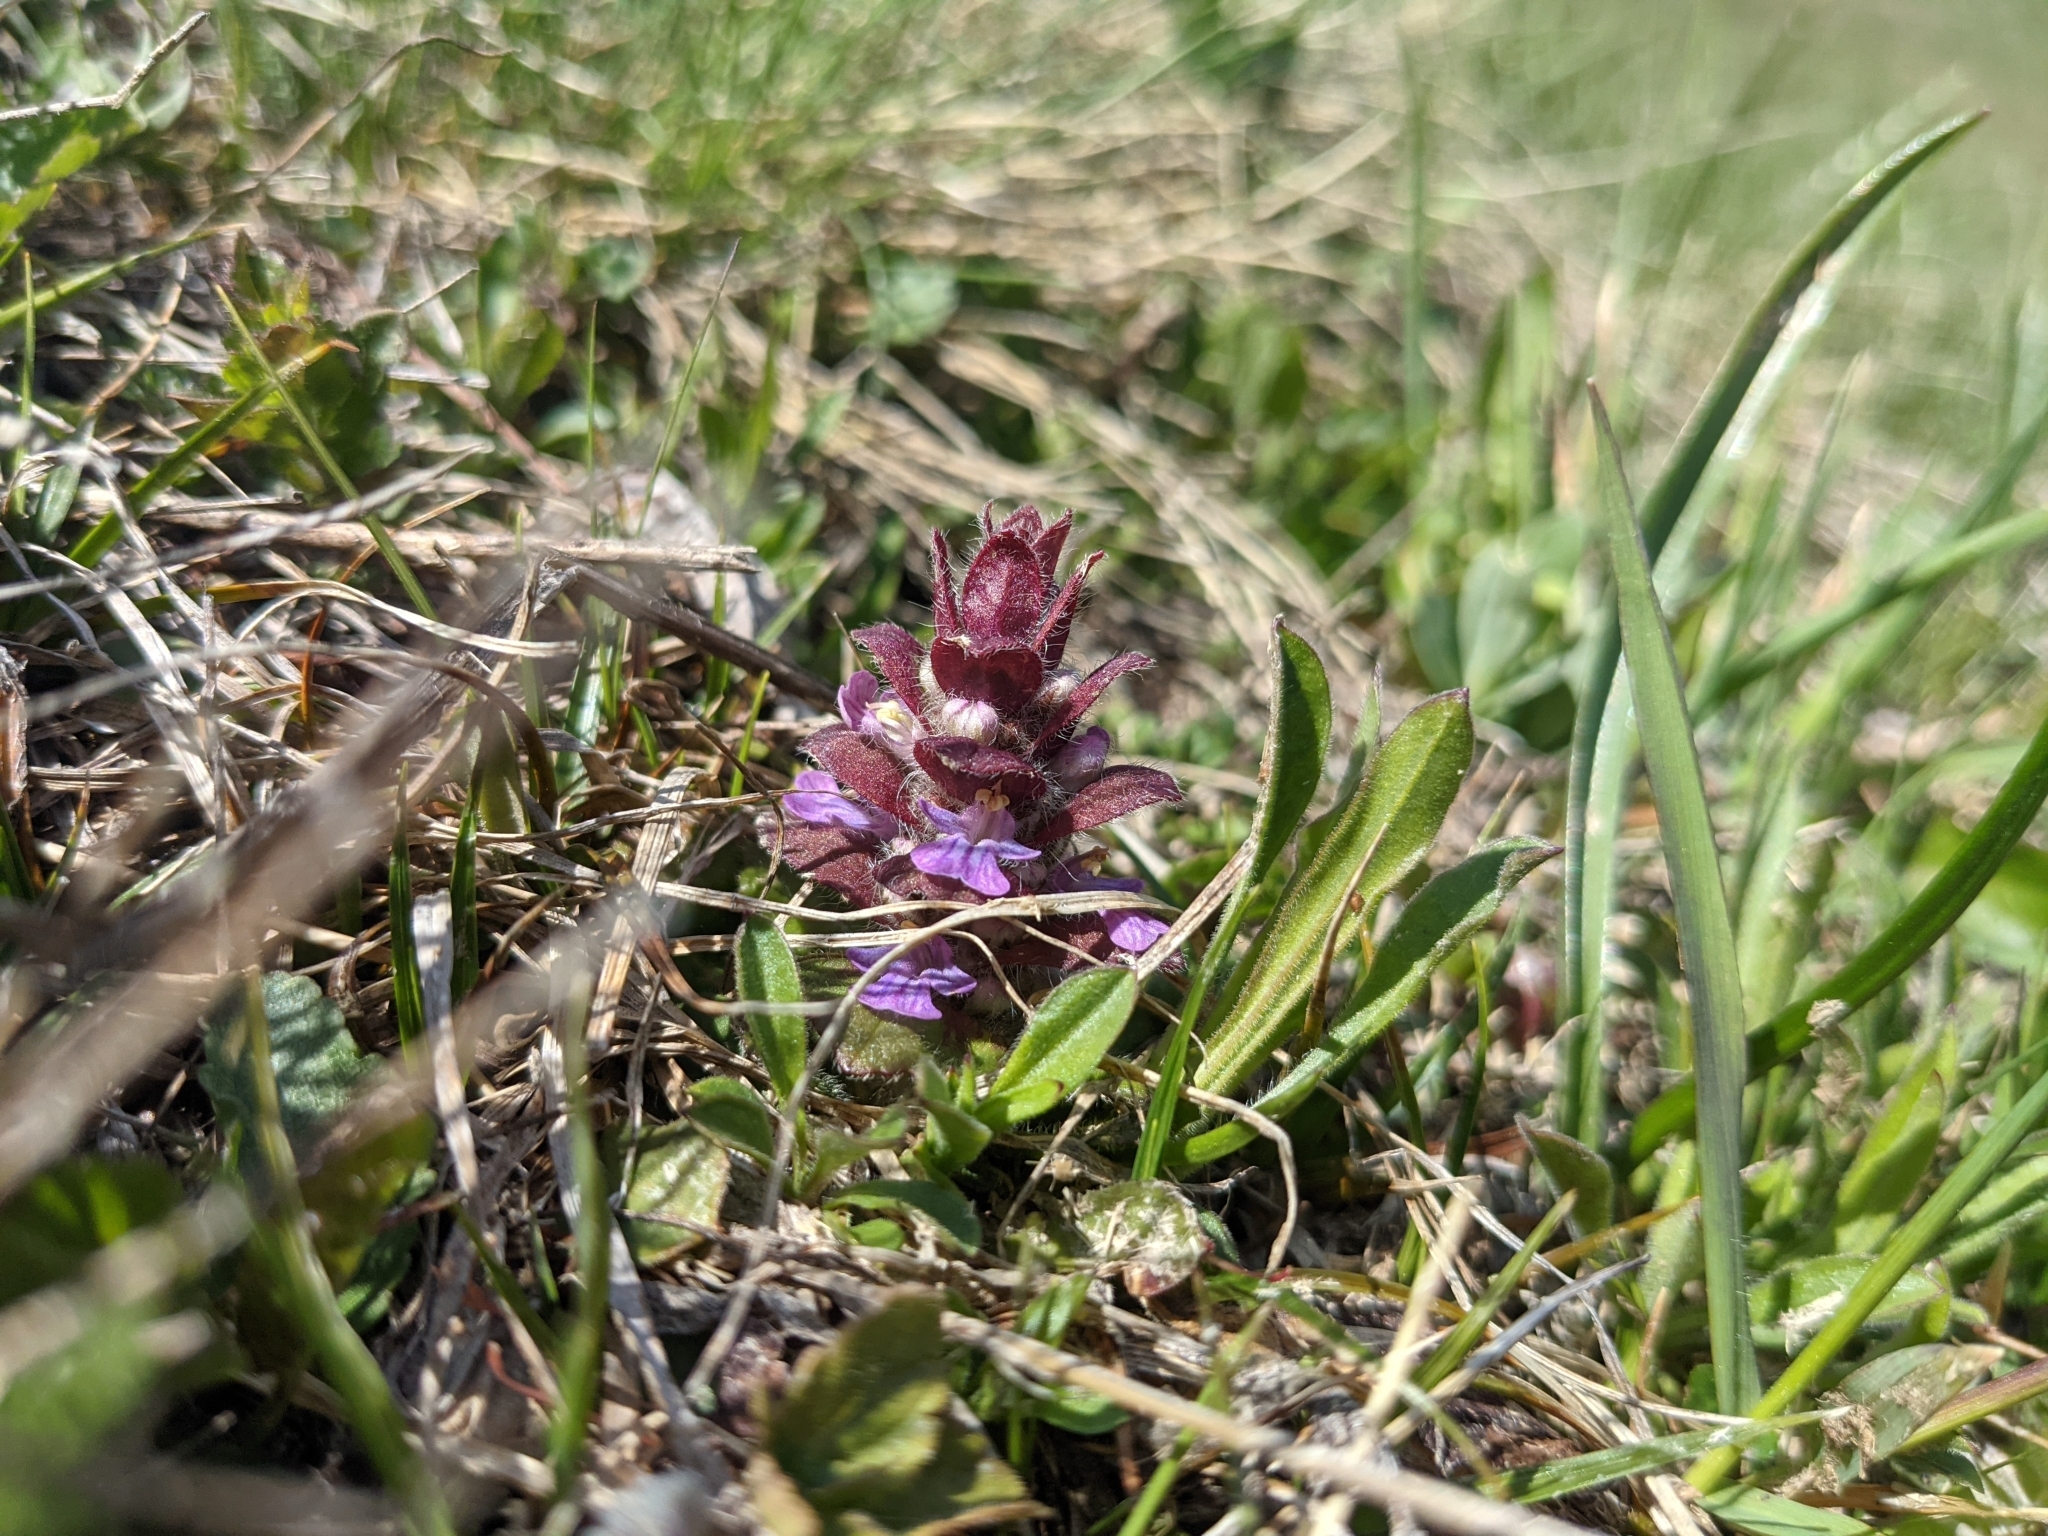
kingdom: Plantae
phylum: Tracheophyta
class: Magnoliopsida
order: Lamiales
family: Lamiaceae
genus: Ajuga
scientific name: Ajuga pyramidalis
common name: Pyramid bugle
